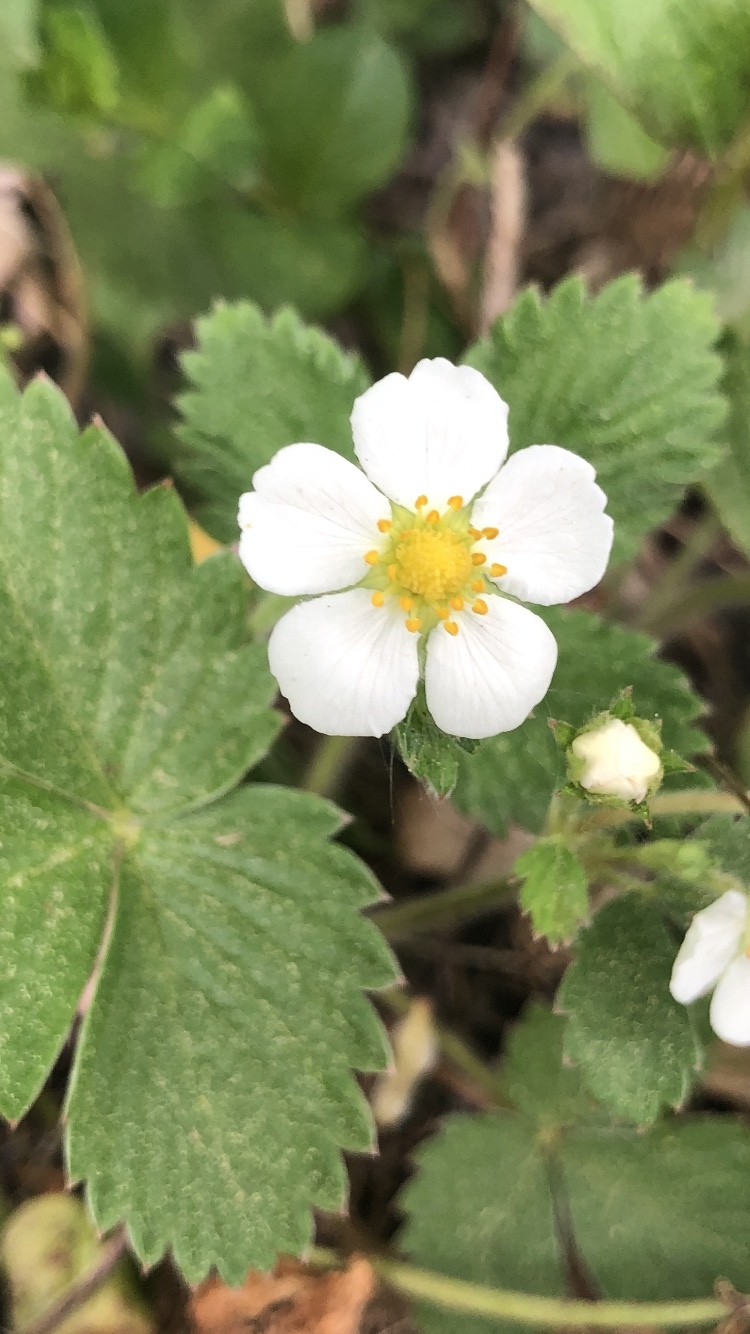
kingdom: Plantae
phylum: Tracheophyta
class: Magnoliopsida
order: Rosales
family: Rosaceae
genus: Fragaria
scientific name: Fragaria vesca
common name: Wild strawberry
